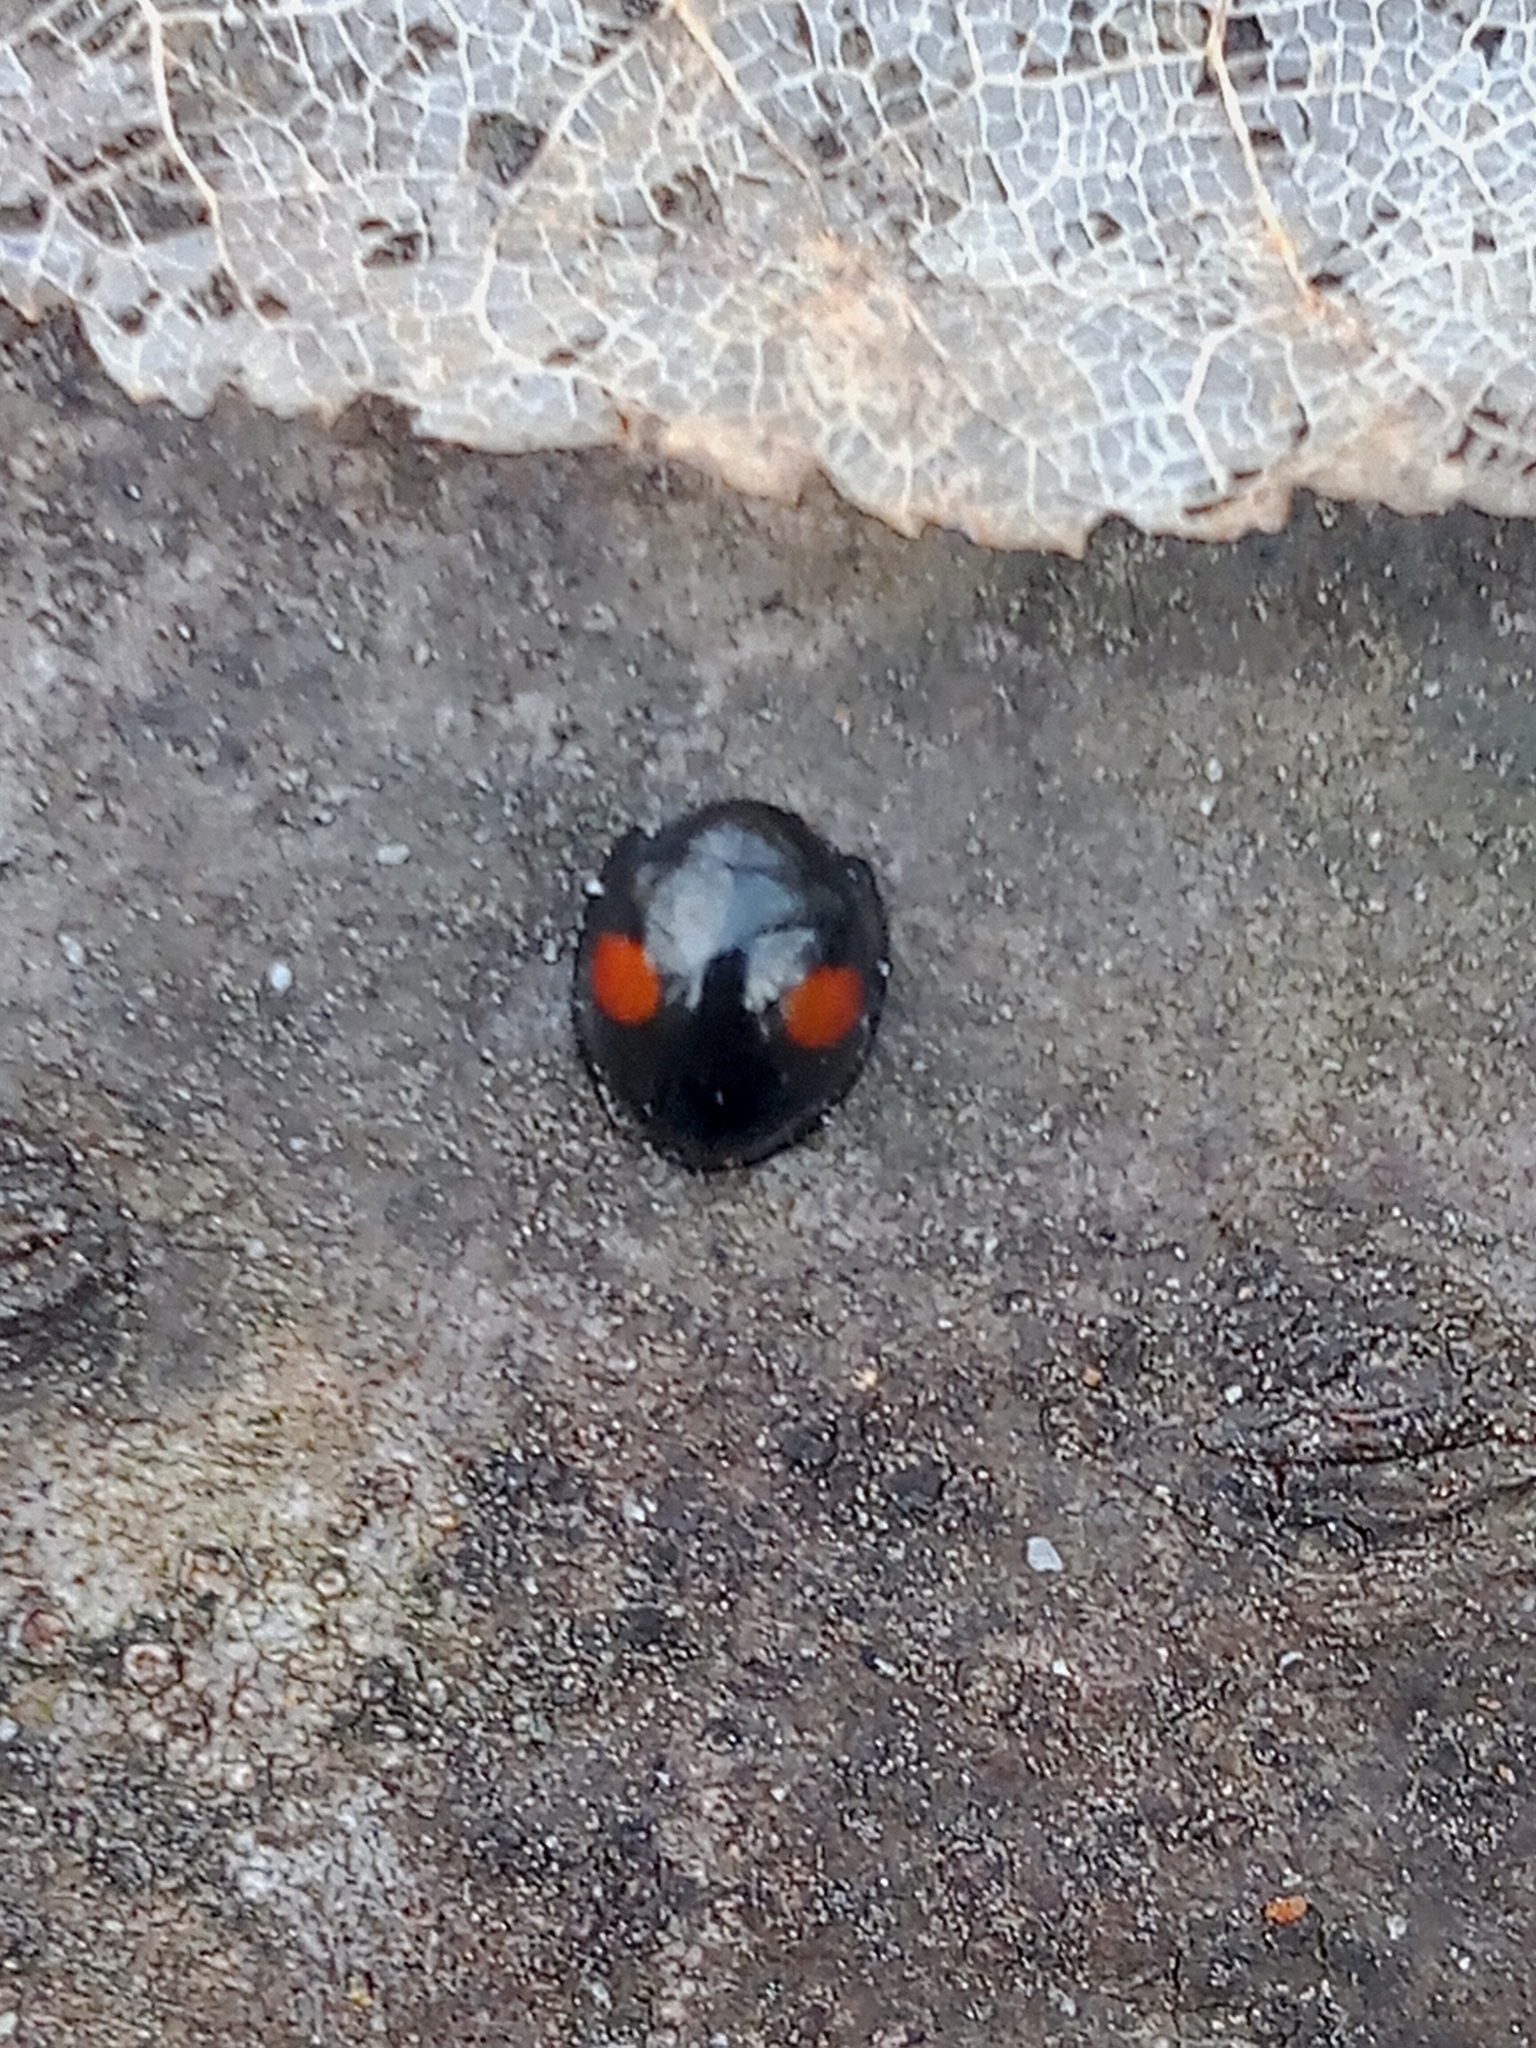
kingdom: Animalia
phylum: Arthropoda
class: Insecta
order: Coleoptera
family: Coccinellidae
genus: Chilocorus
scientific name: Chilocorus renipustulatus
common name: Kidney-spot ladybird
